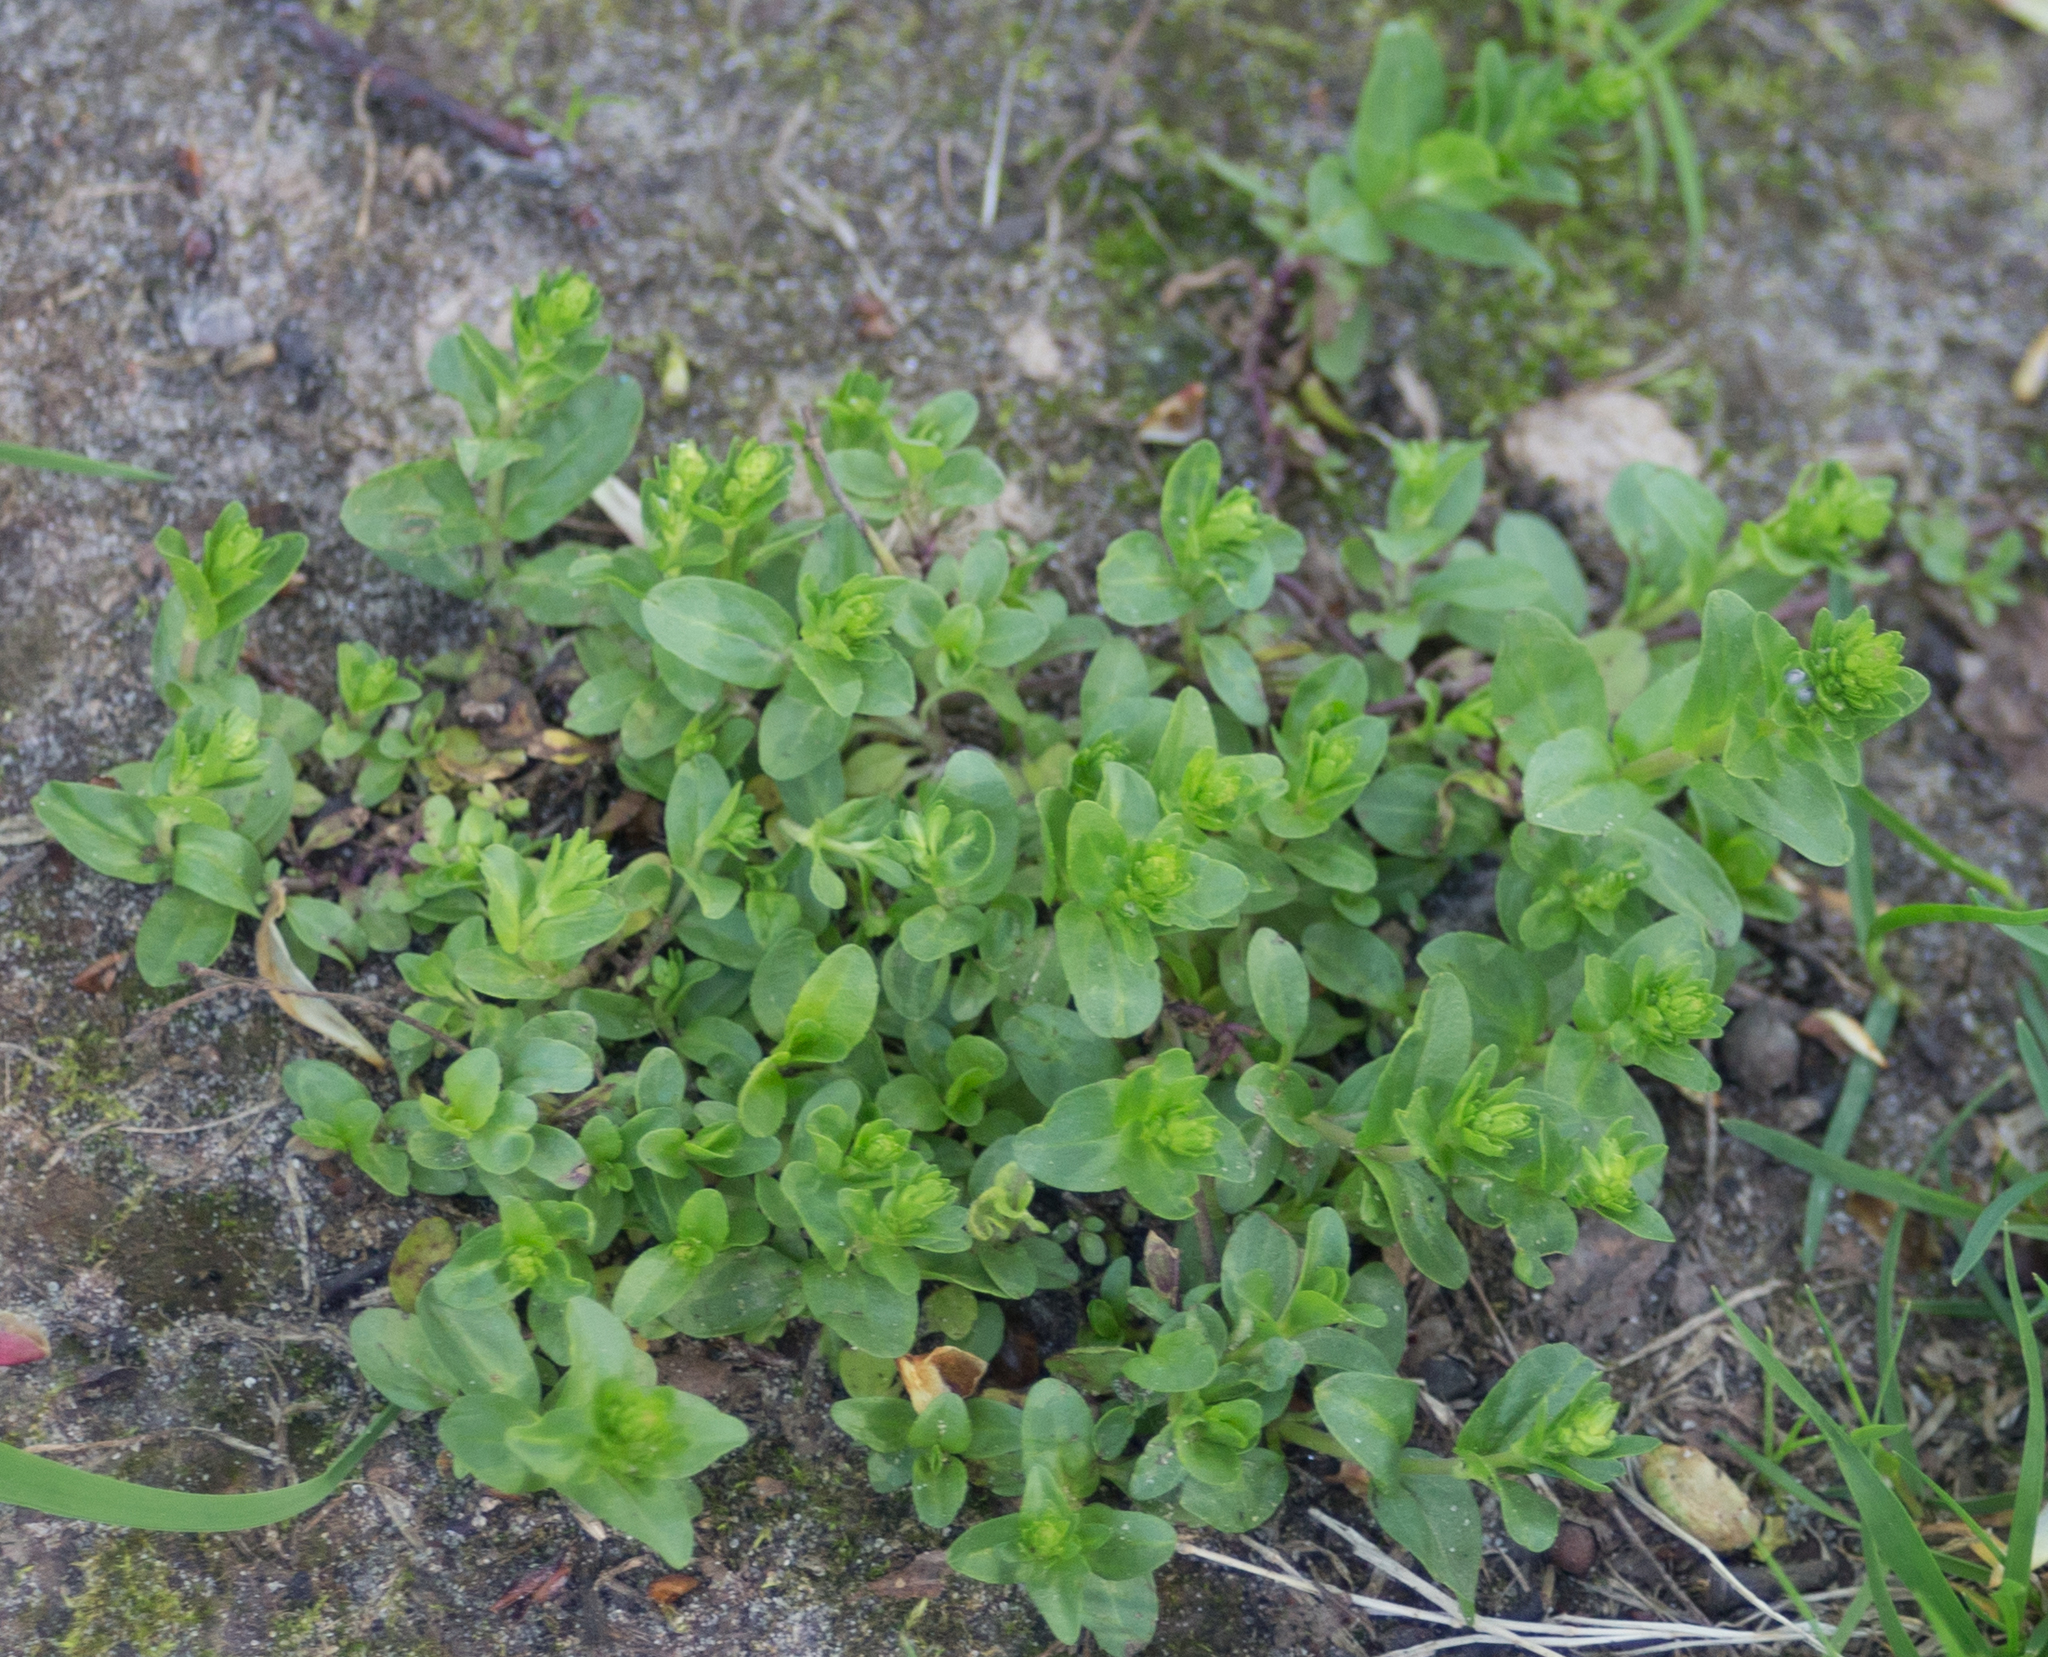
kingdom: Plantae
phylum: Tracheophyta
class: Magnoliopsida
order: Lamiales
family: Plantaginaceae
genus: Veronica
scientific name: Veronica serpyllifolia
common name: Thyme-leaved speedwell
